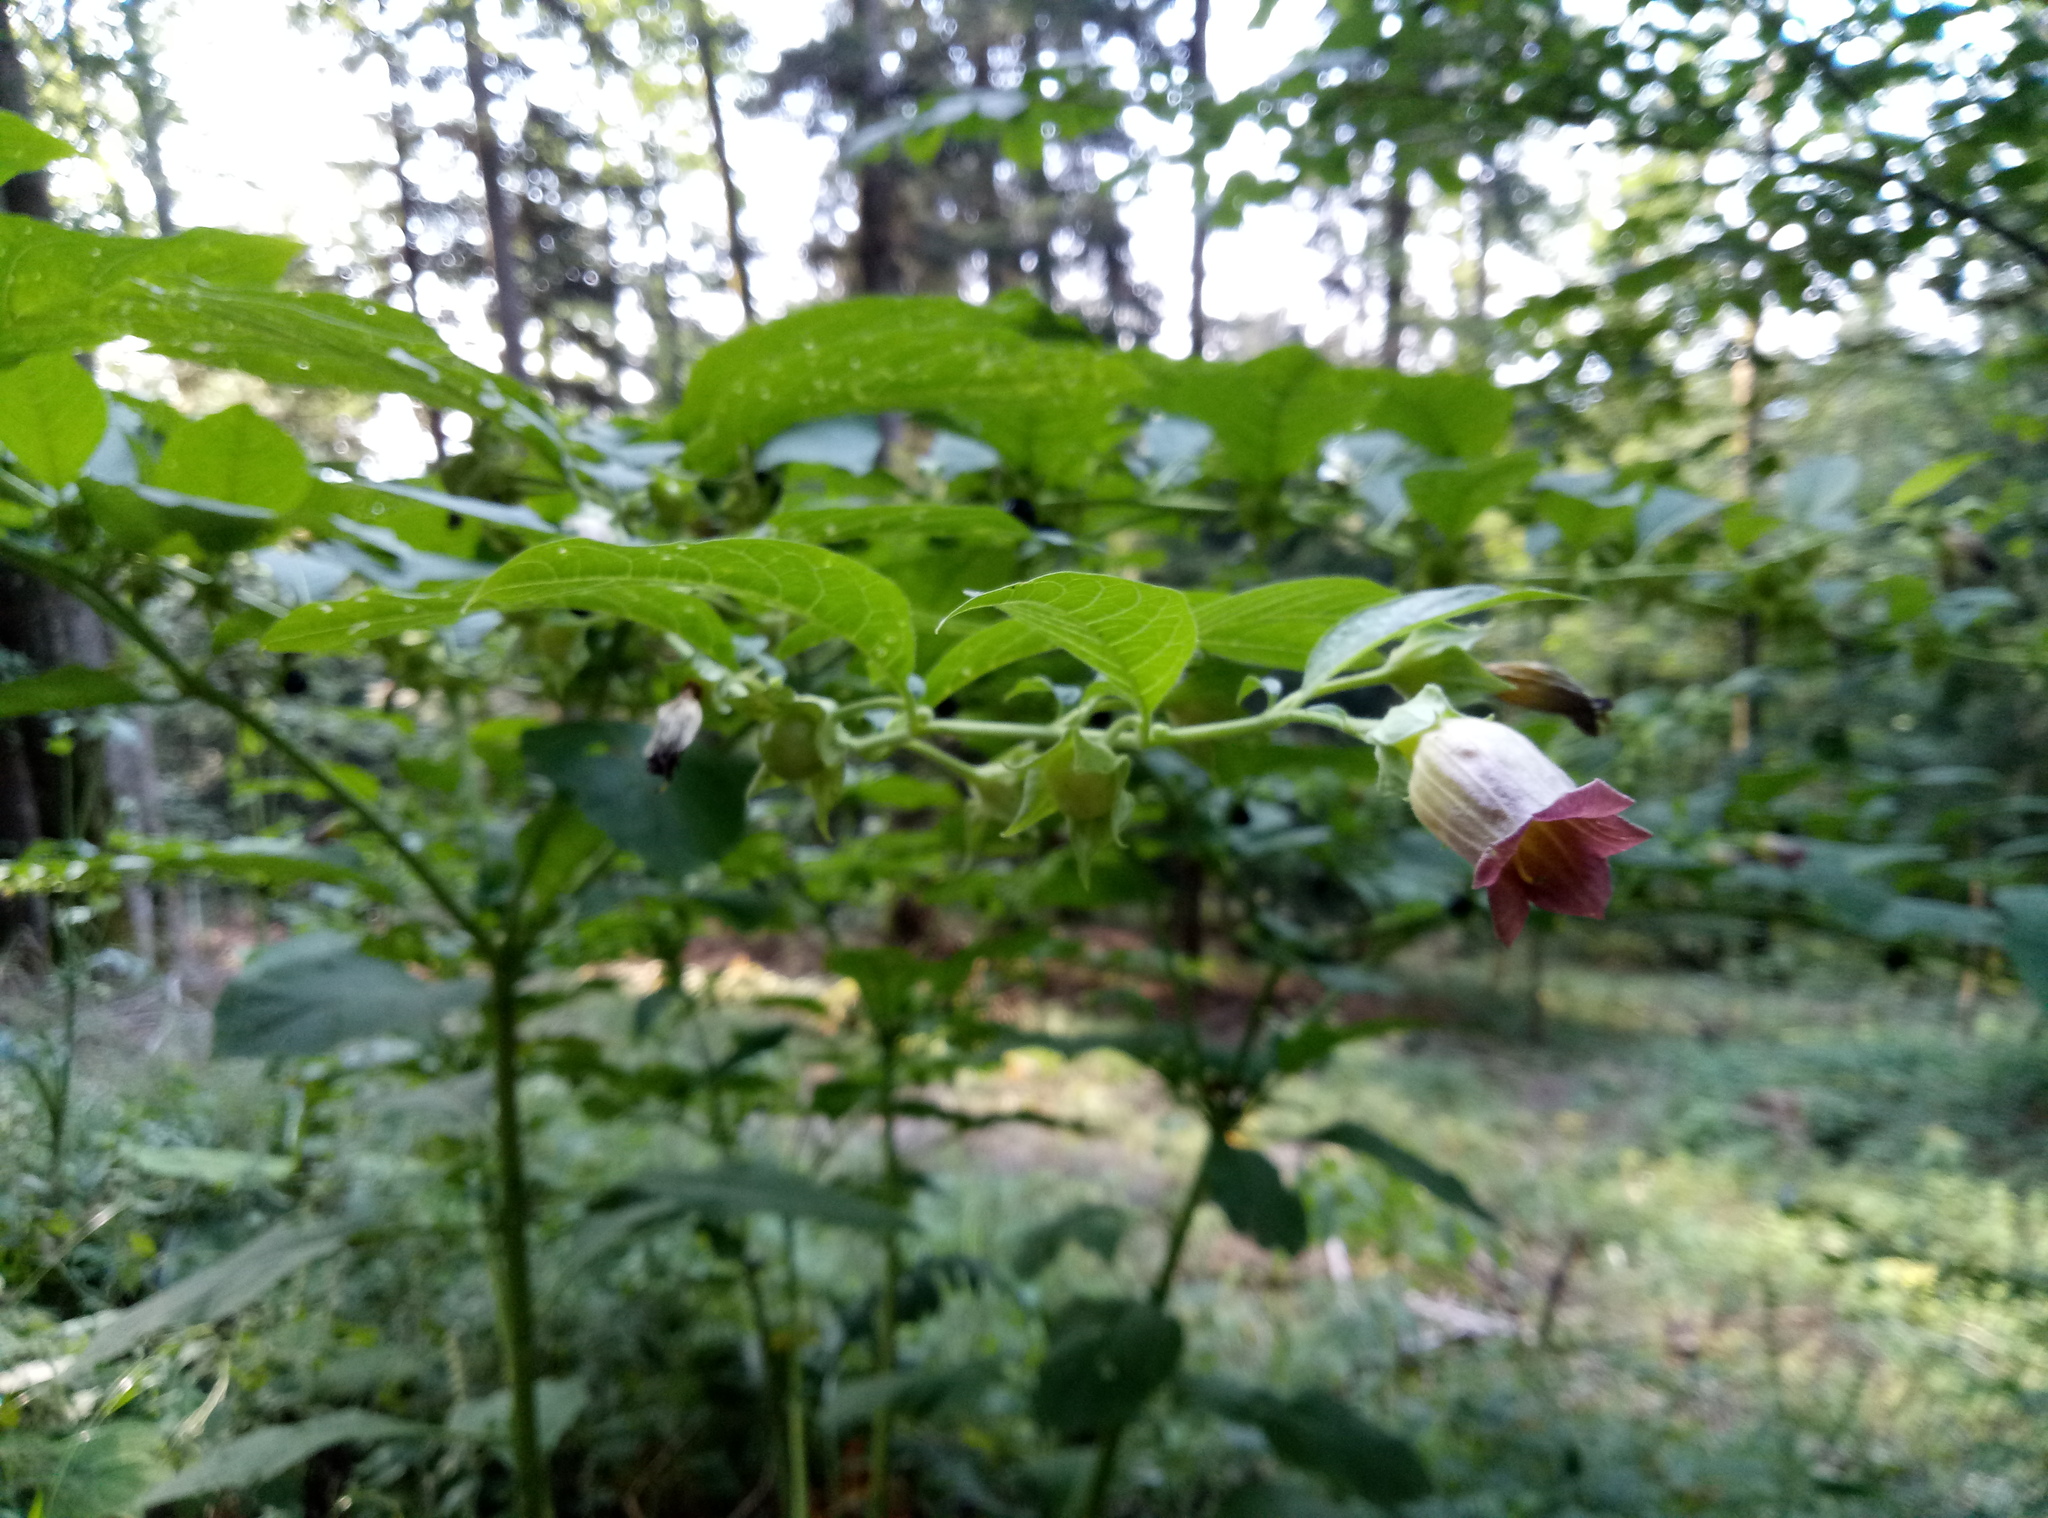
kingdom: Plantae
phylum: Tracheophyta
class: Magnoliopsida
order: Solanales
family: Solanaceae
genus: Atropa
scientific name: Atropa belladonna
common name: Deadly nightshade
